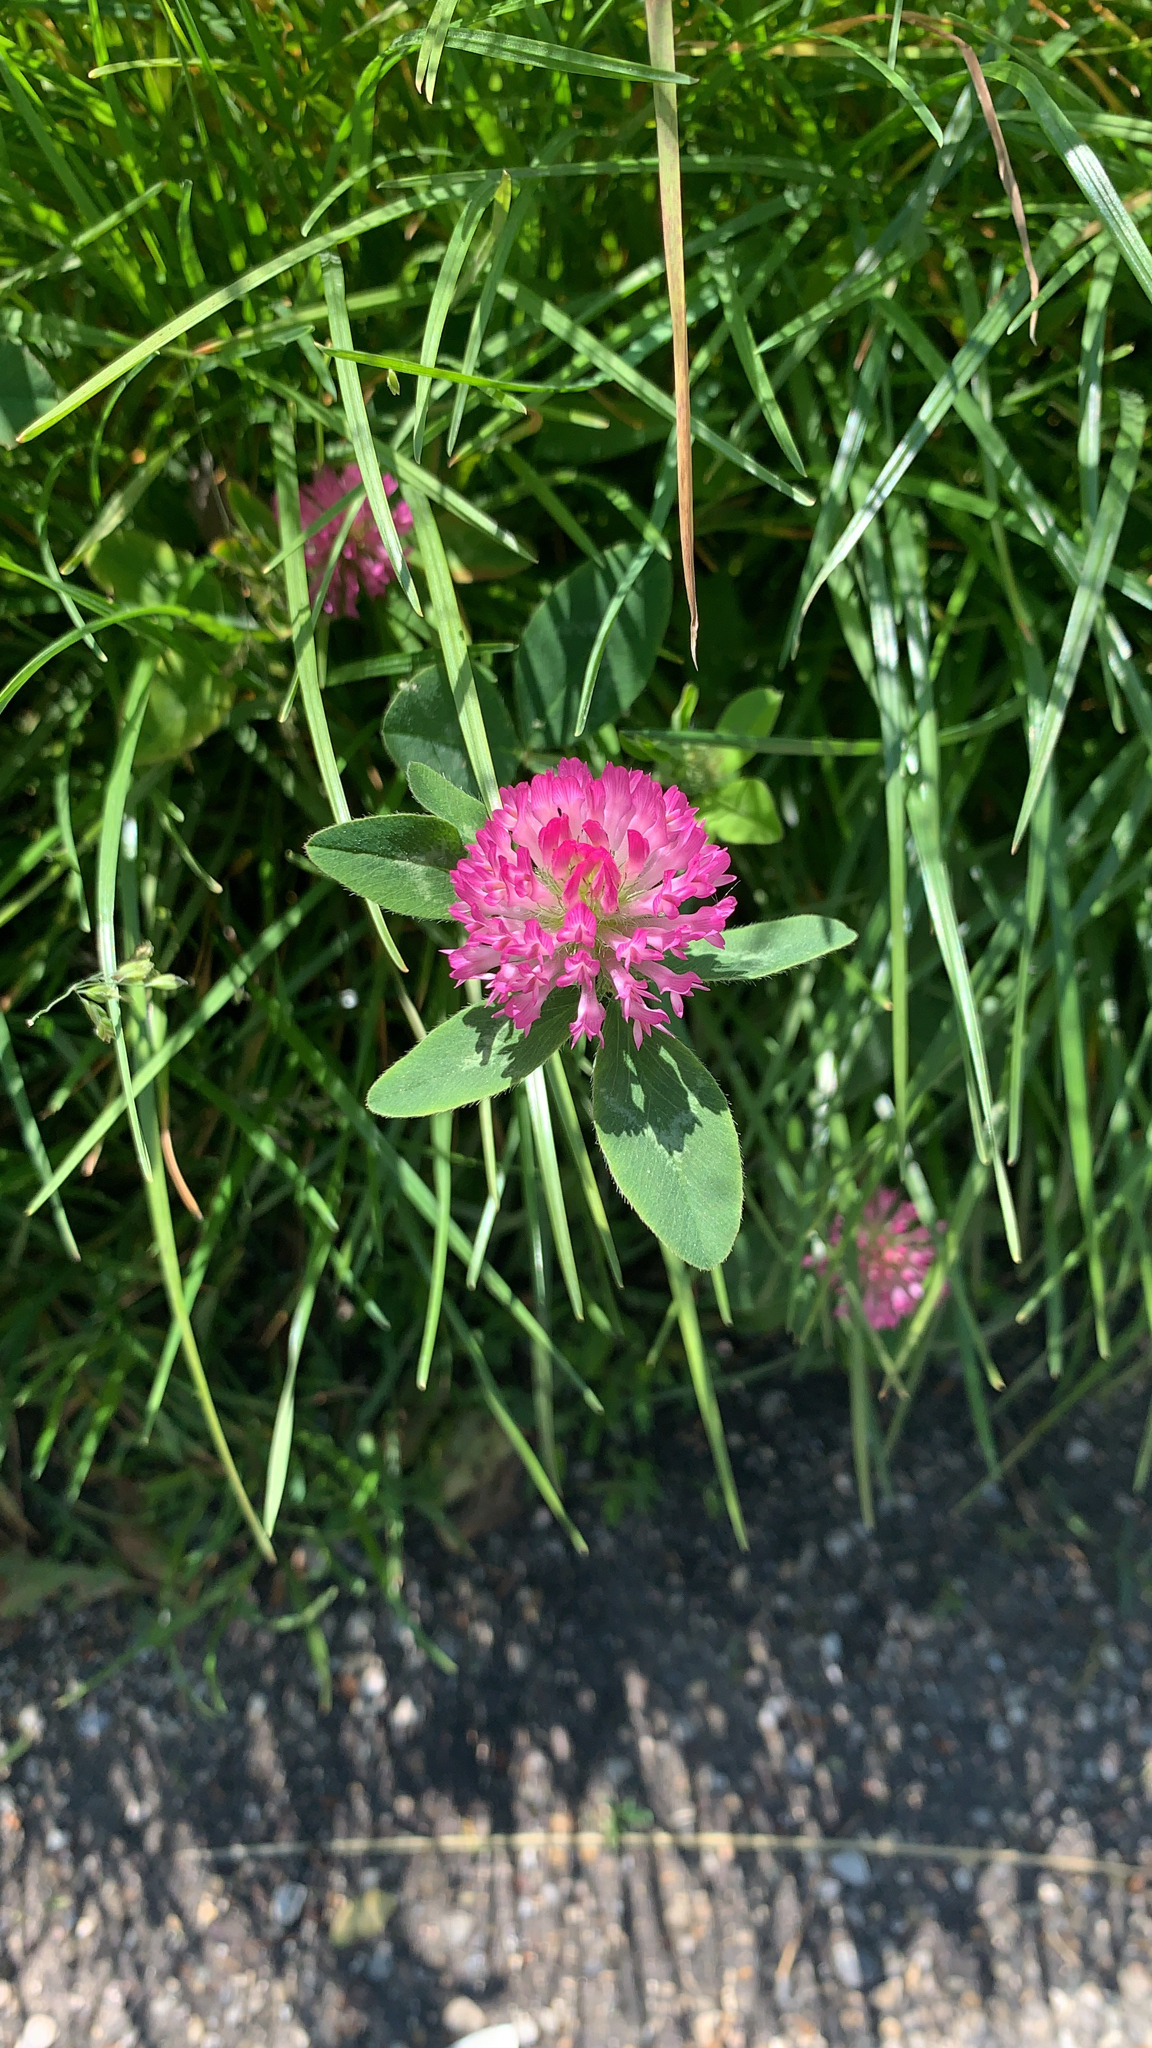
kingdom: Plantae
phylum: Tracheophyta
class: Magnoliopsida
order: Fabales
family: Fabaceae
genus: Trifolium
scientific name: Trifolium medium
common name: Zigzag clover
